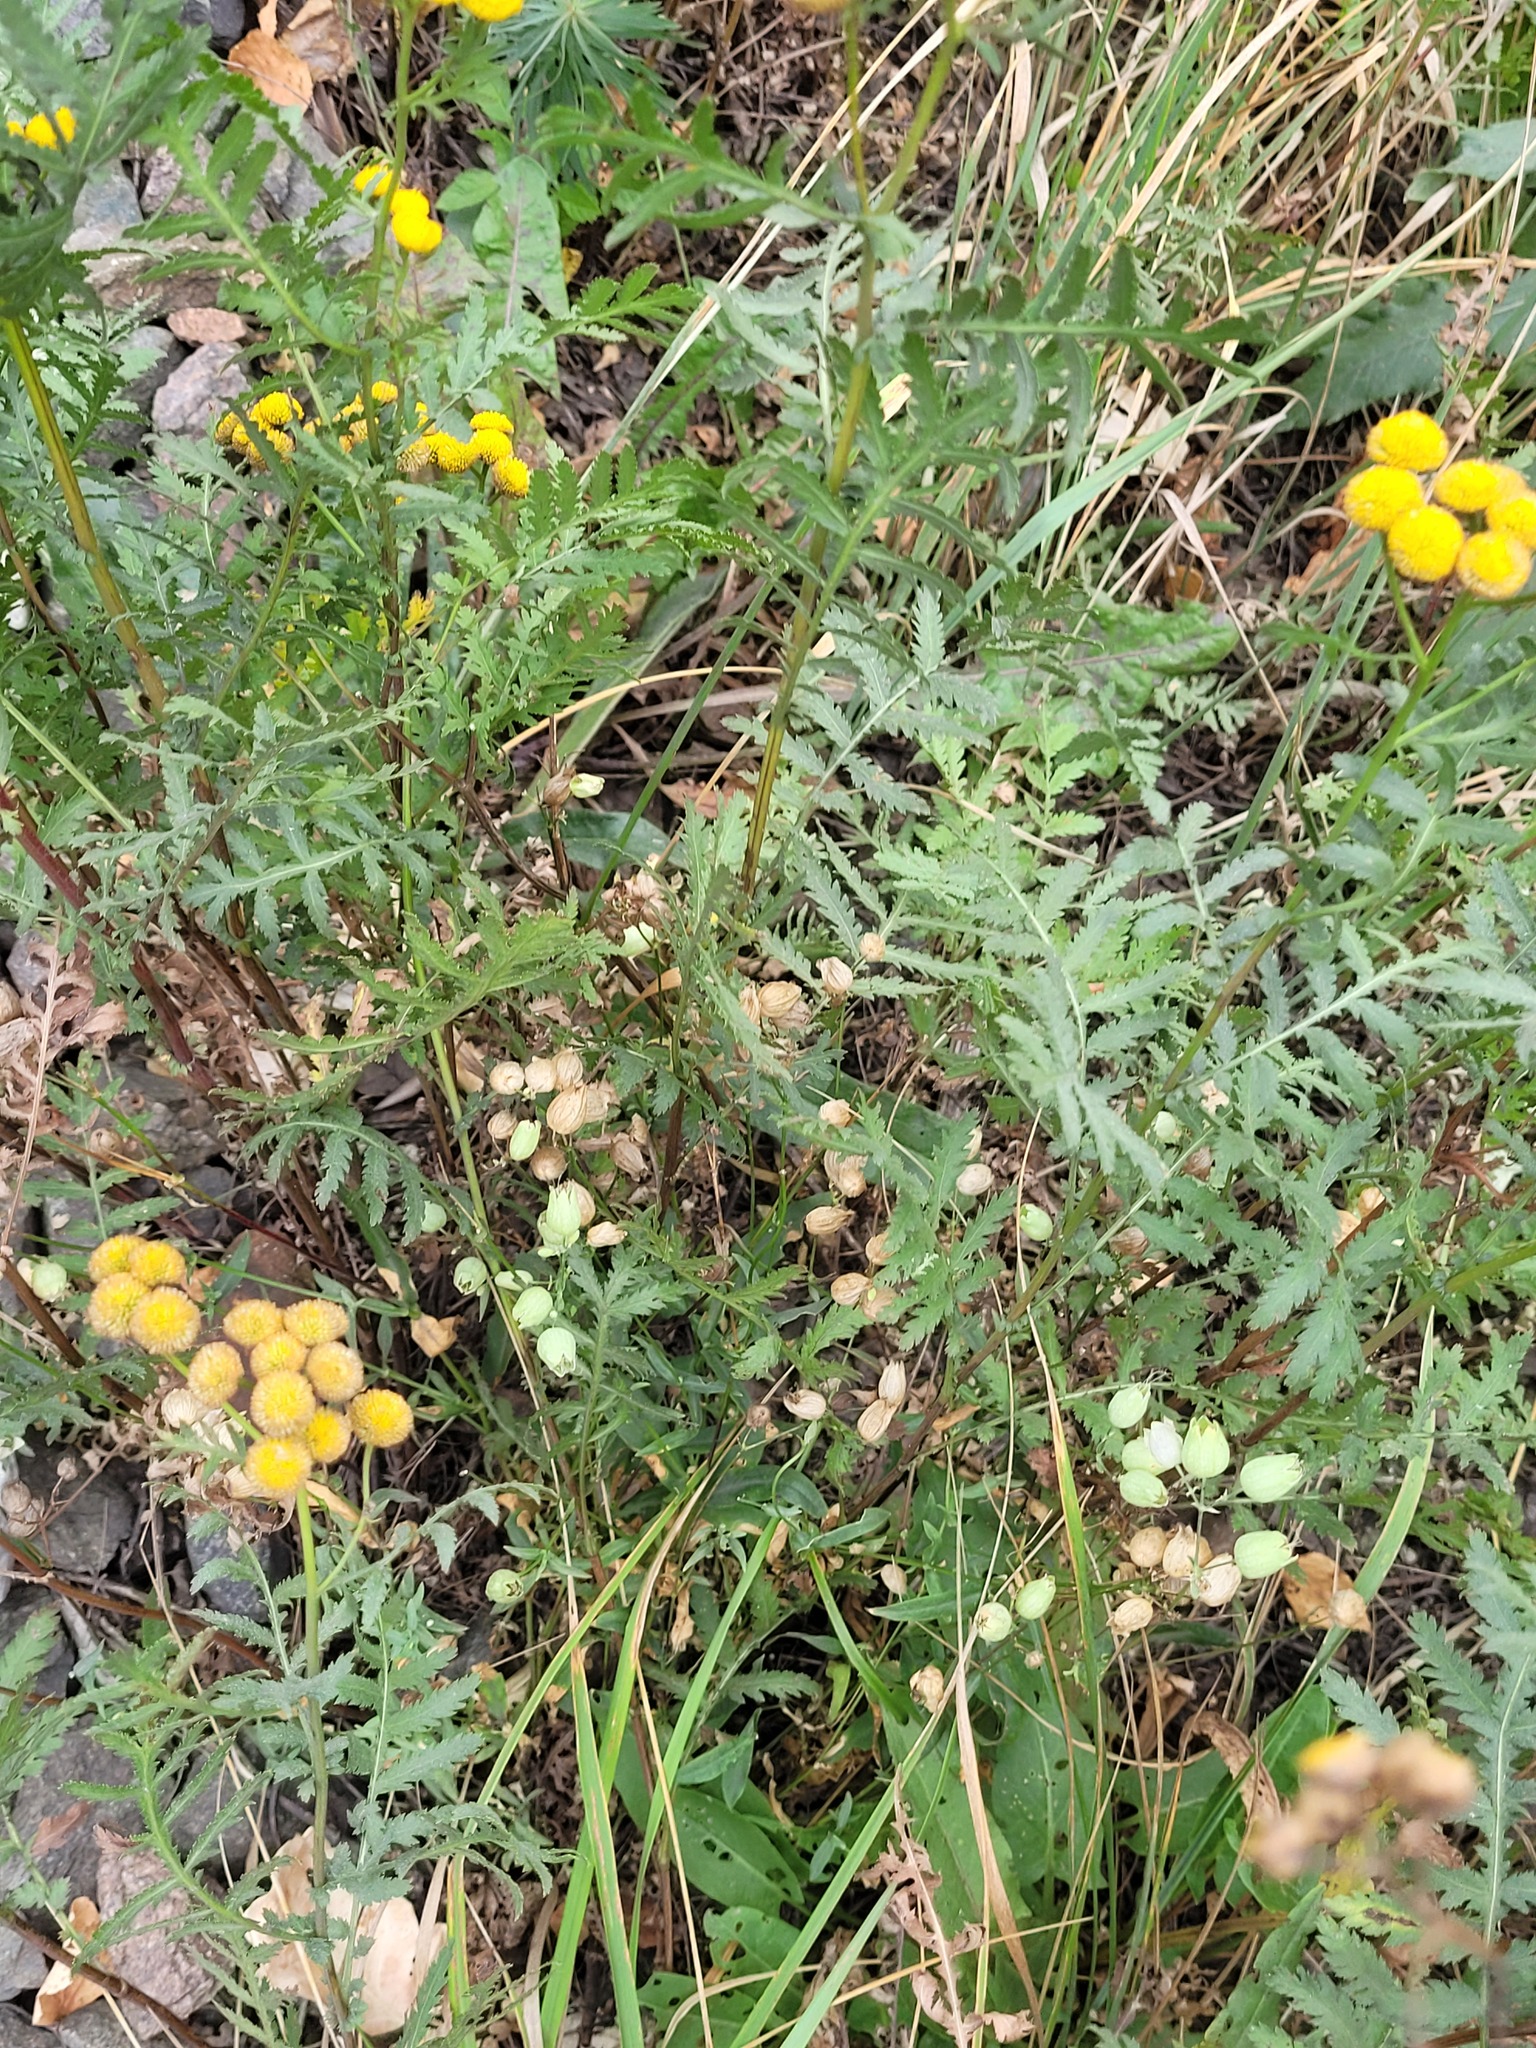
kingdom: Plantae
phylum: Tracheophyta
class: Magnoliopsida
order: Caryophyllales
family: Caryophyllaceae
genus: Silene
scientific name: Silene vulgaris
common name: Bladder campion
